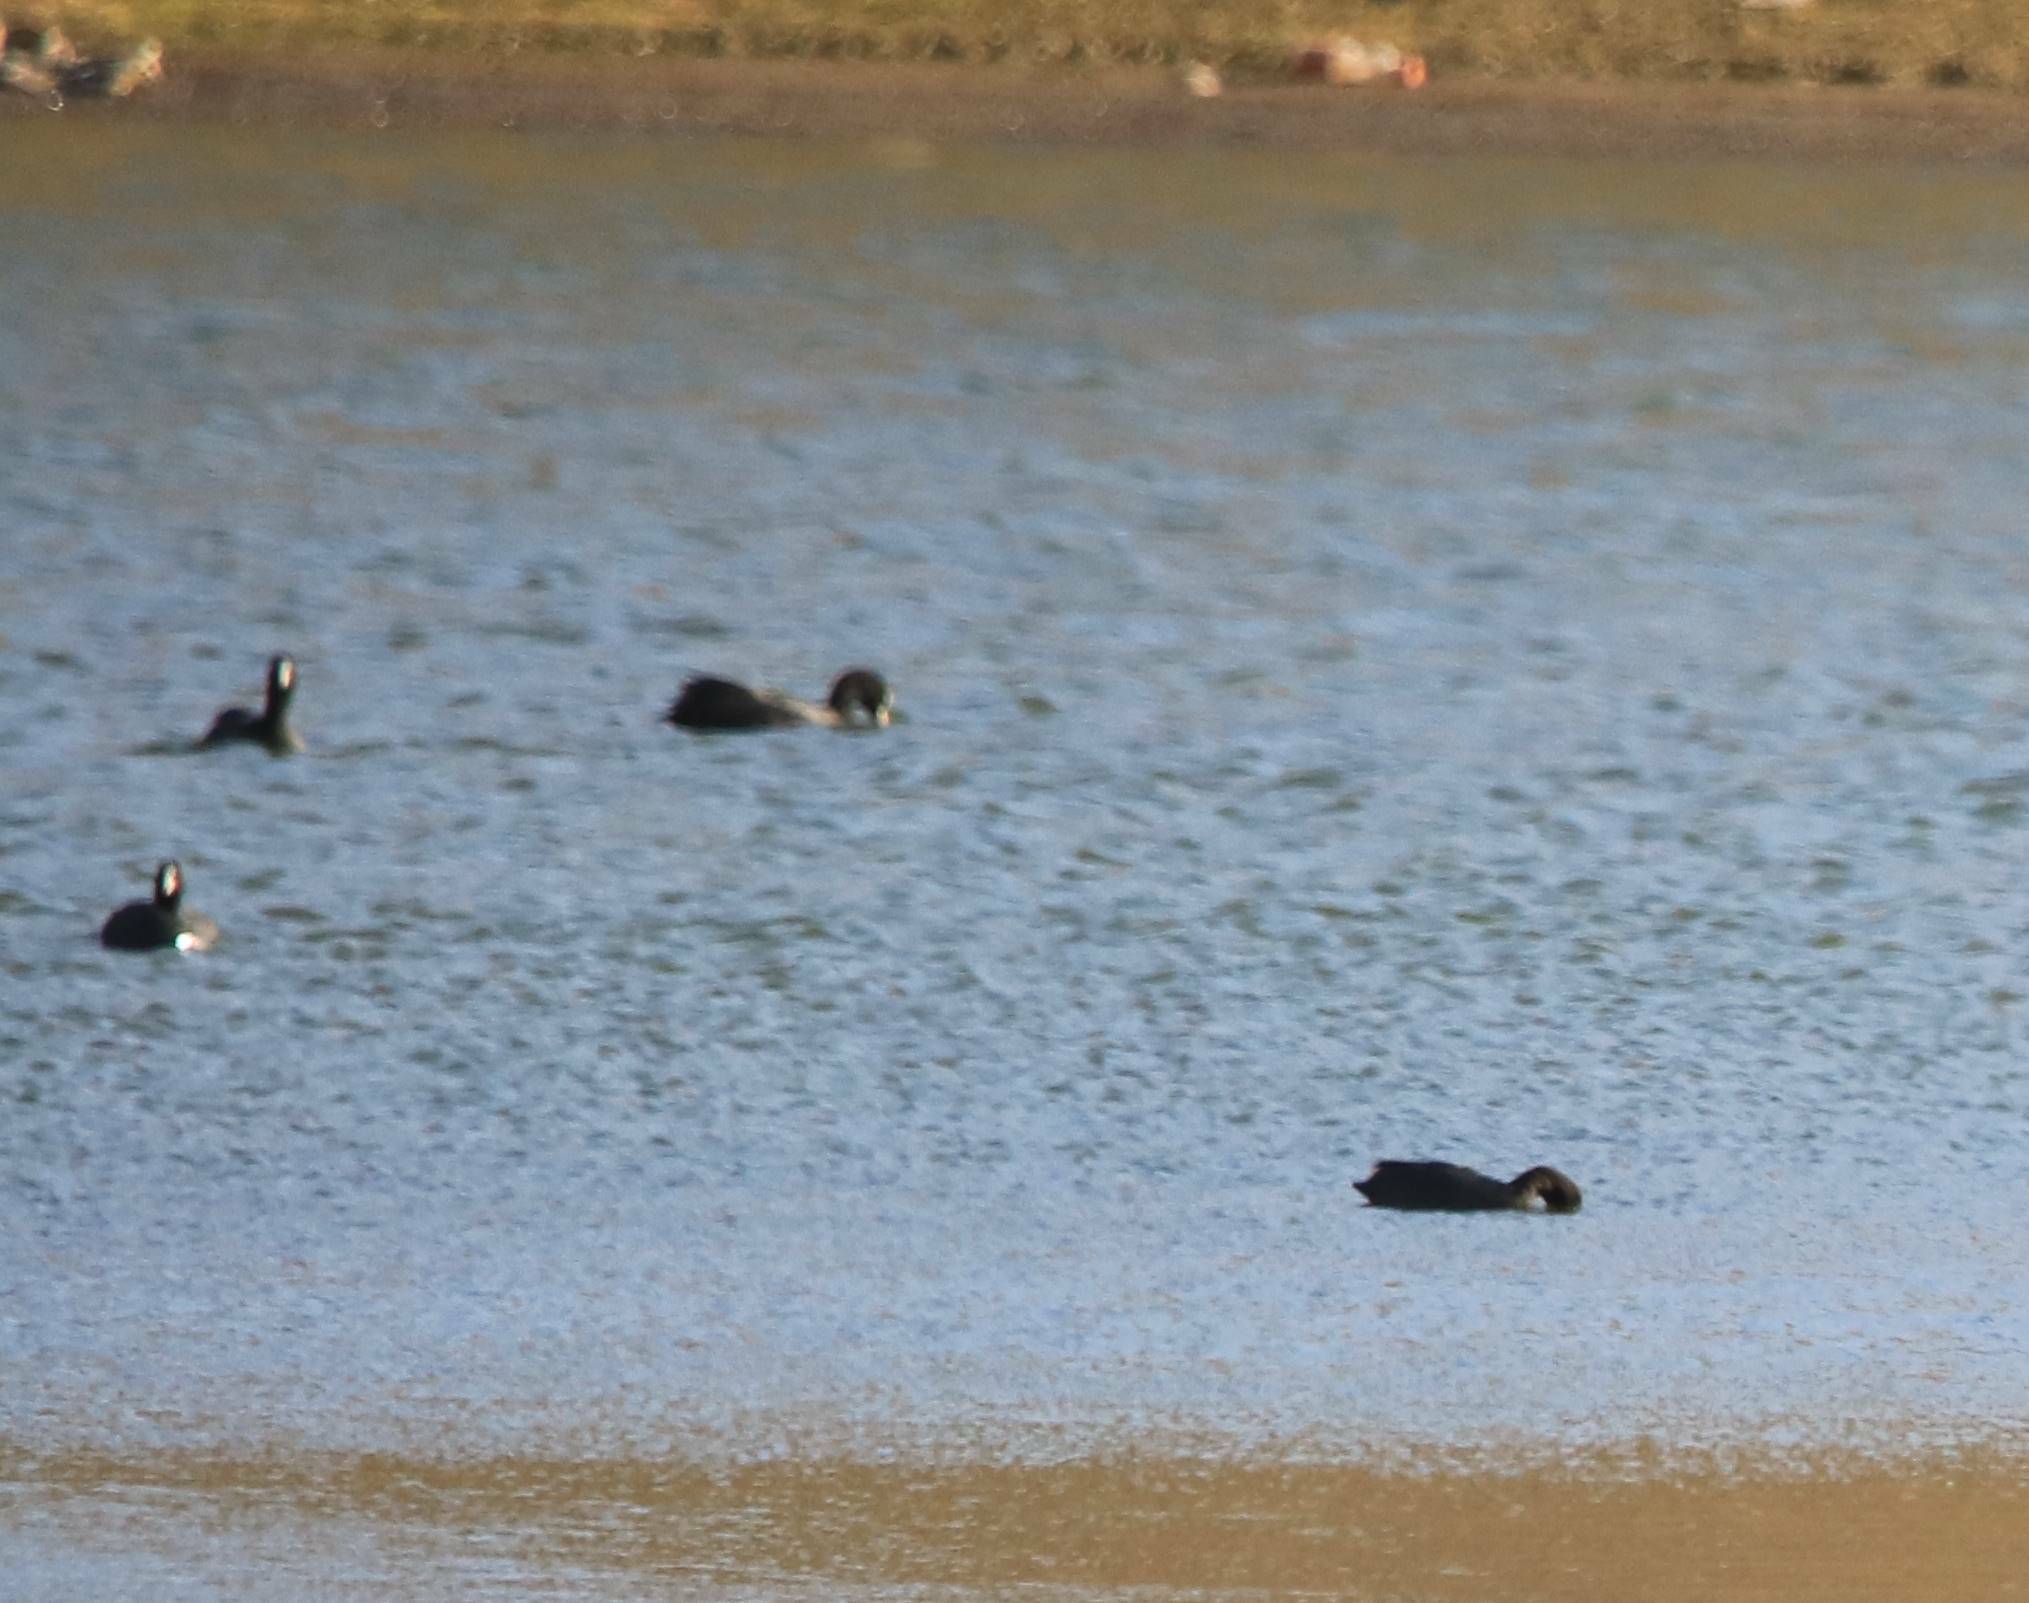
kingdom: Animalia
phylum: Chordata
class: Aves
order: Gruiformes
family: Rallidae
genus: Fulica
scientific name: Fulica atra
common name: Eurasian coot
